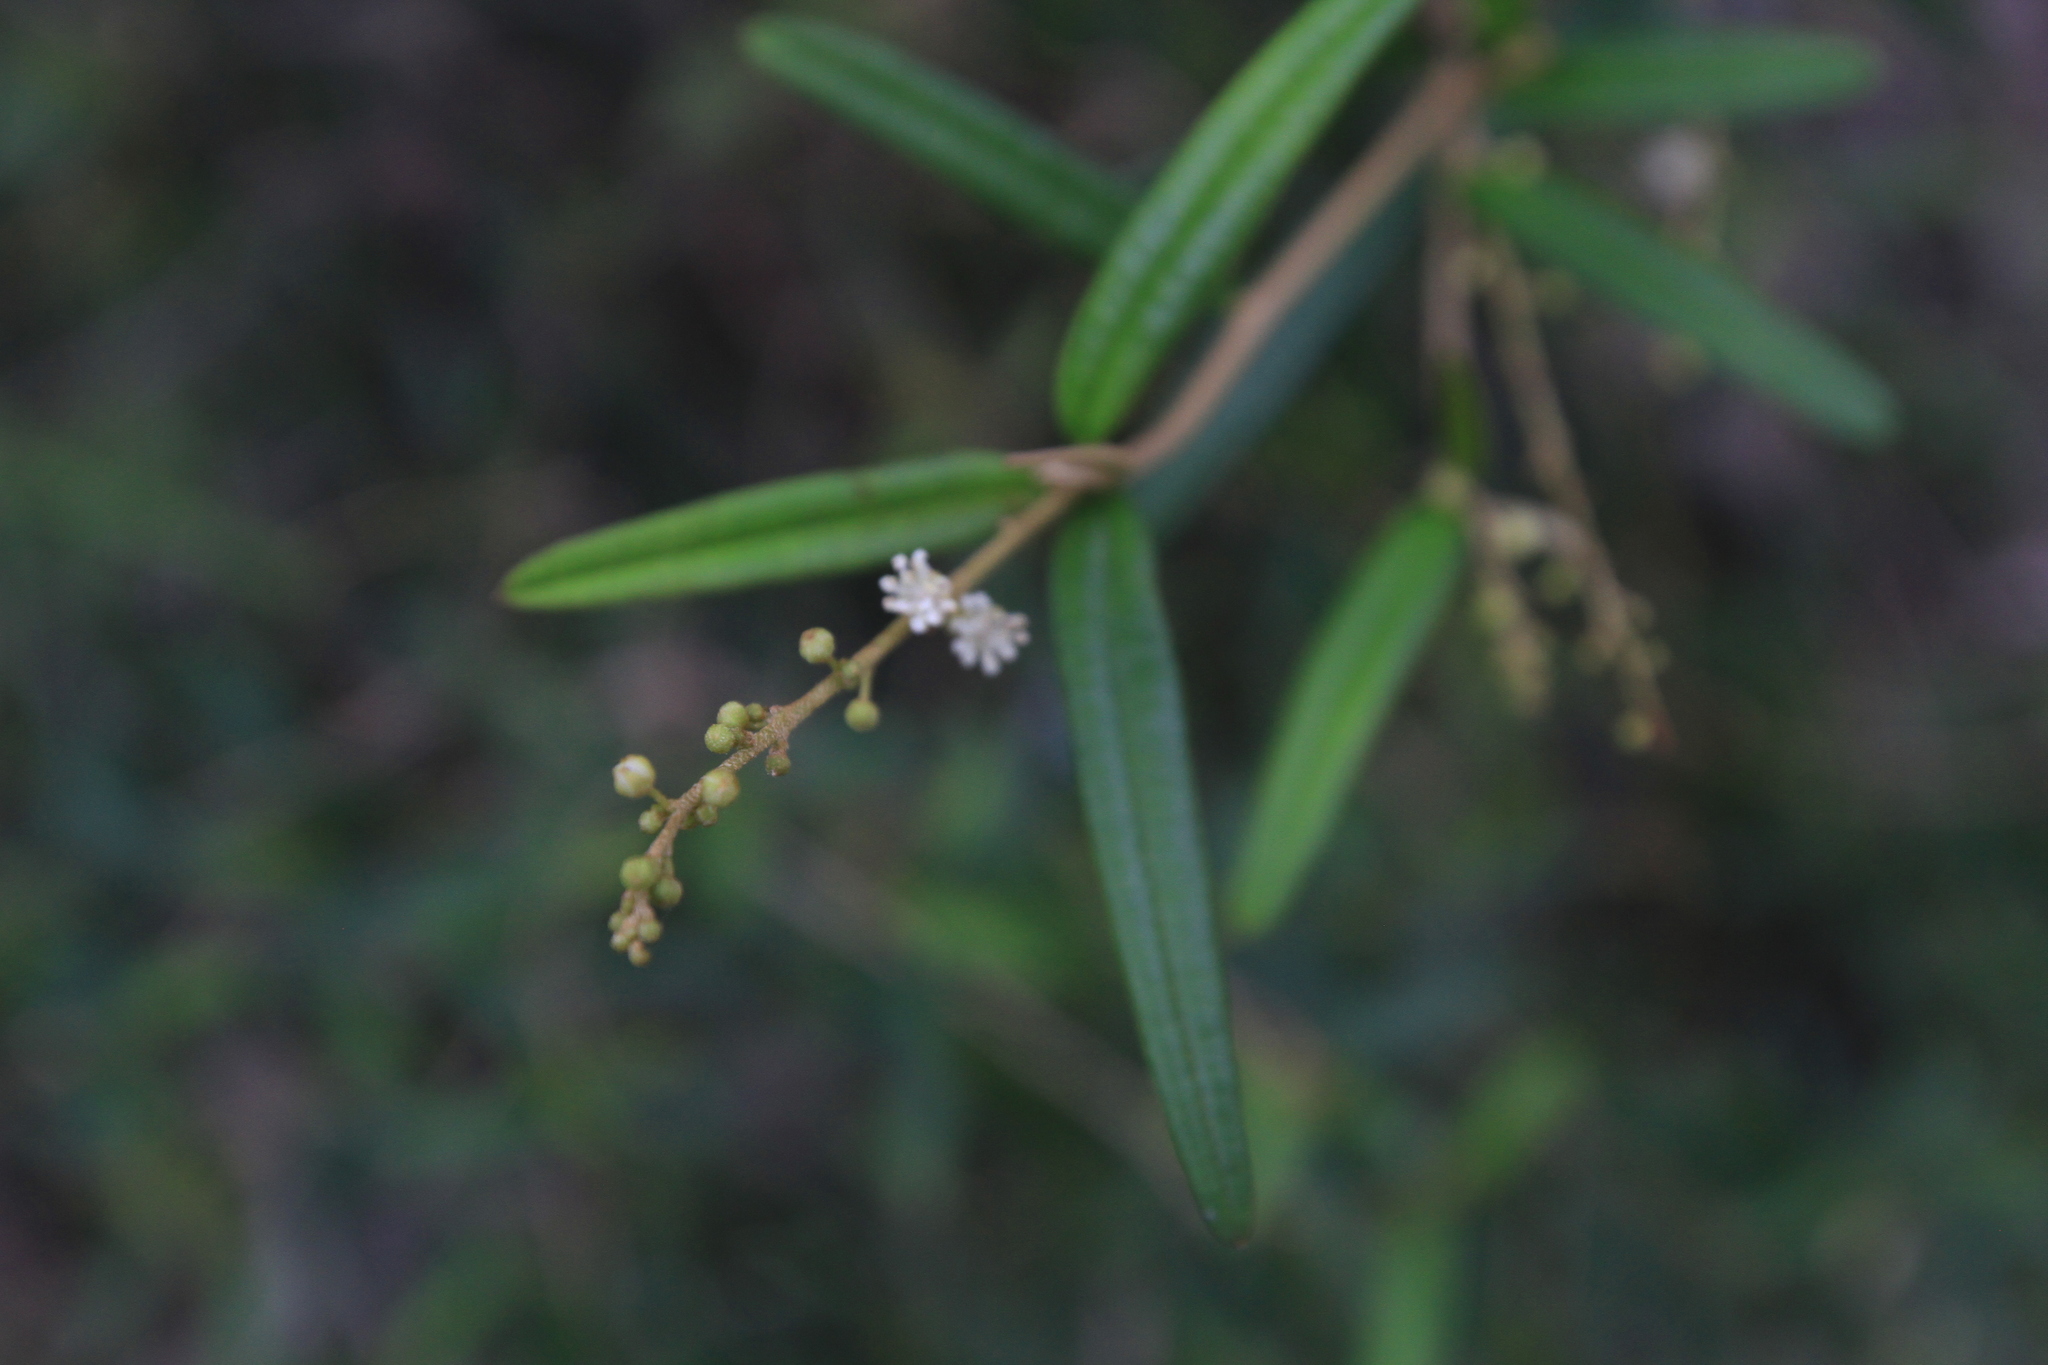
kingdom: Plantae
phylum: Tracheophyta
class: Magnoliopsida
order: Malpighiales
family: Euphorbiaceae
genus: Croton
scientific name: Croton linearis
